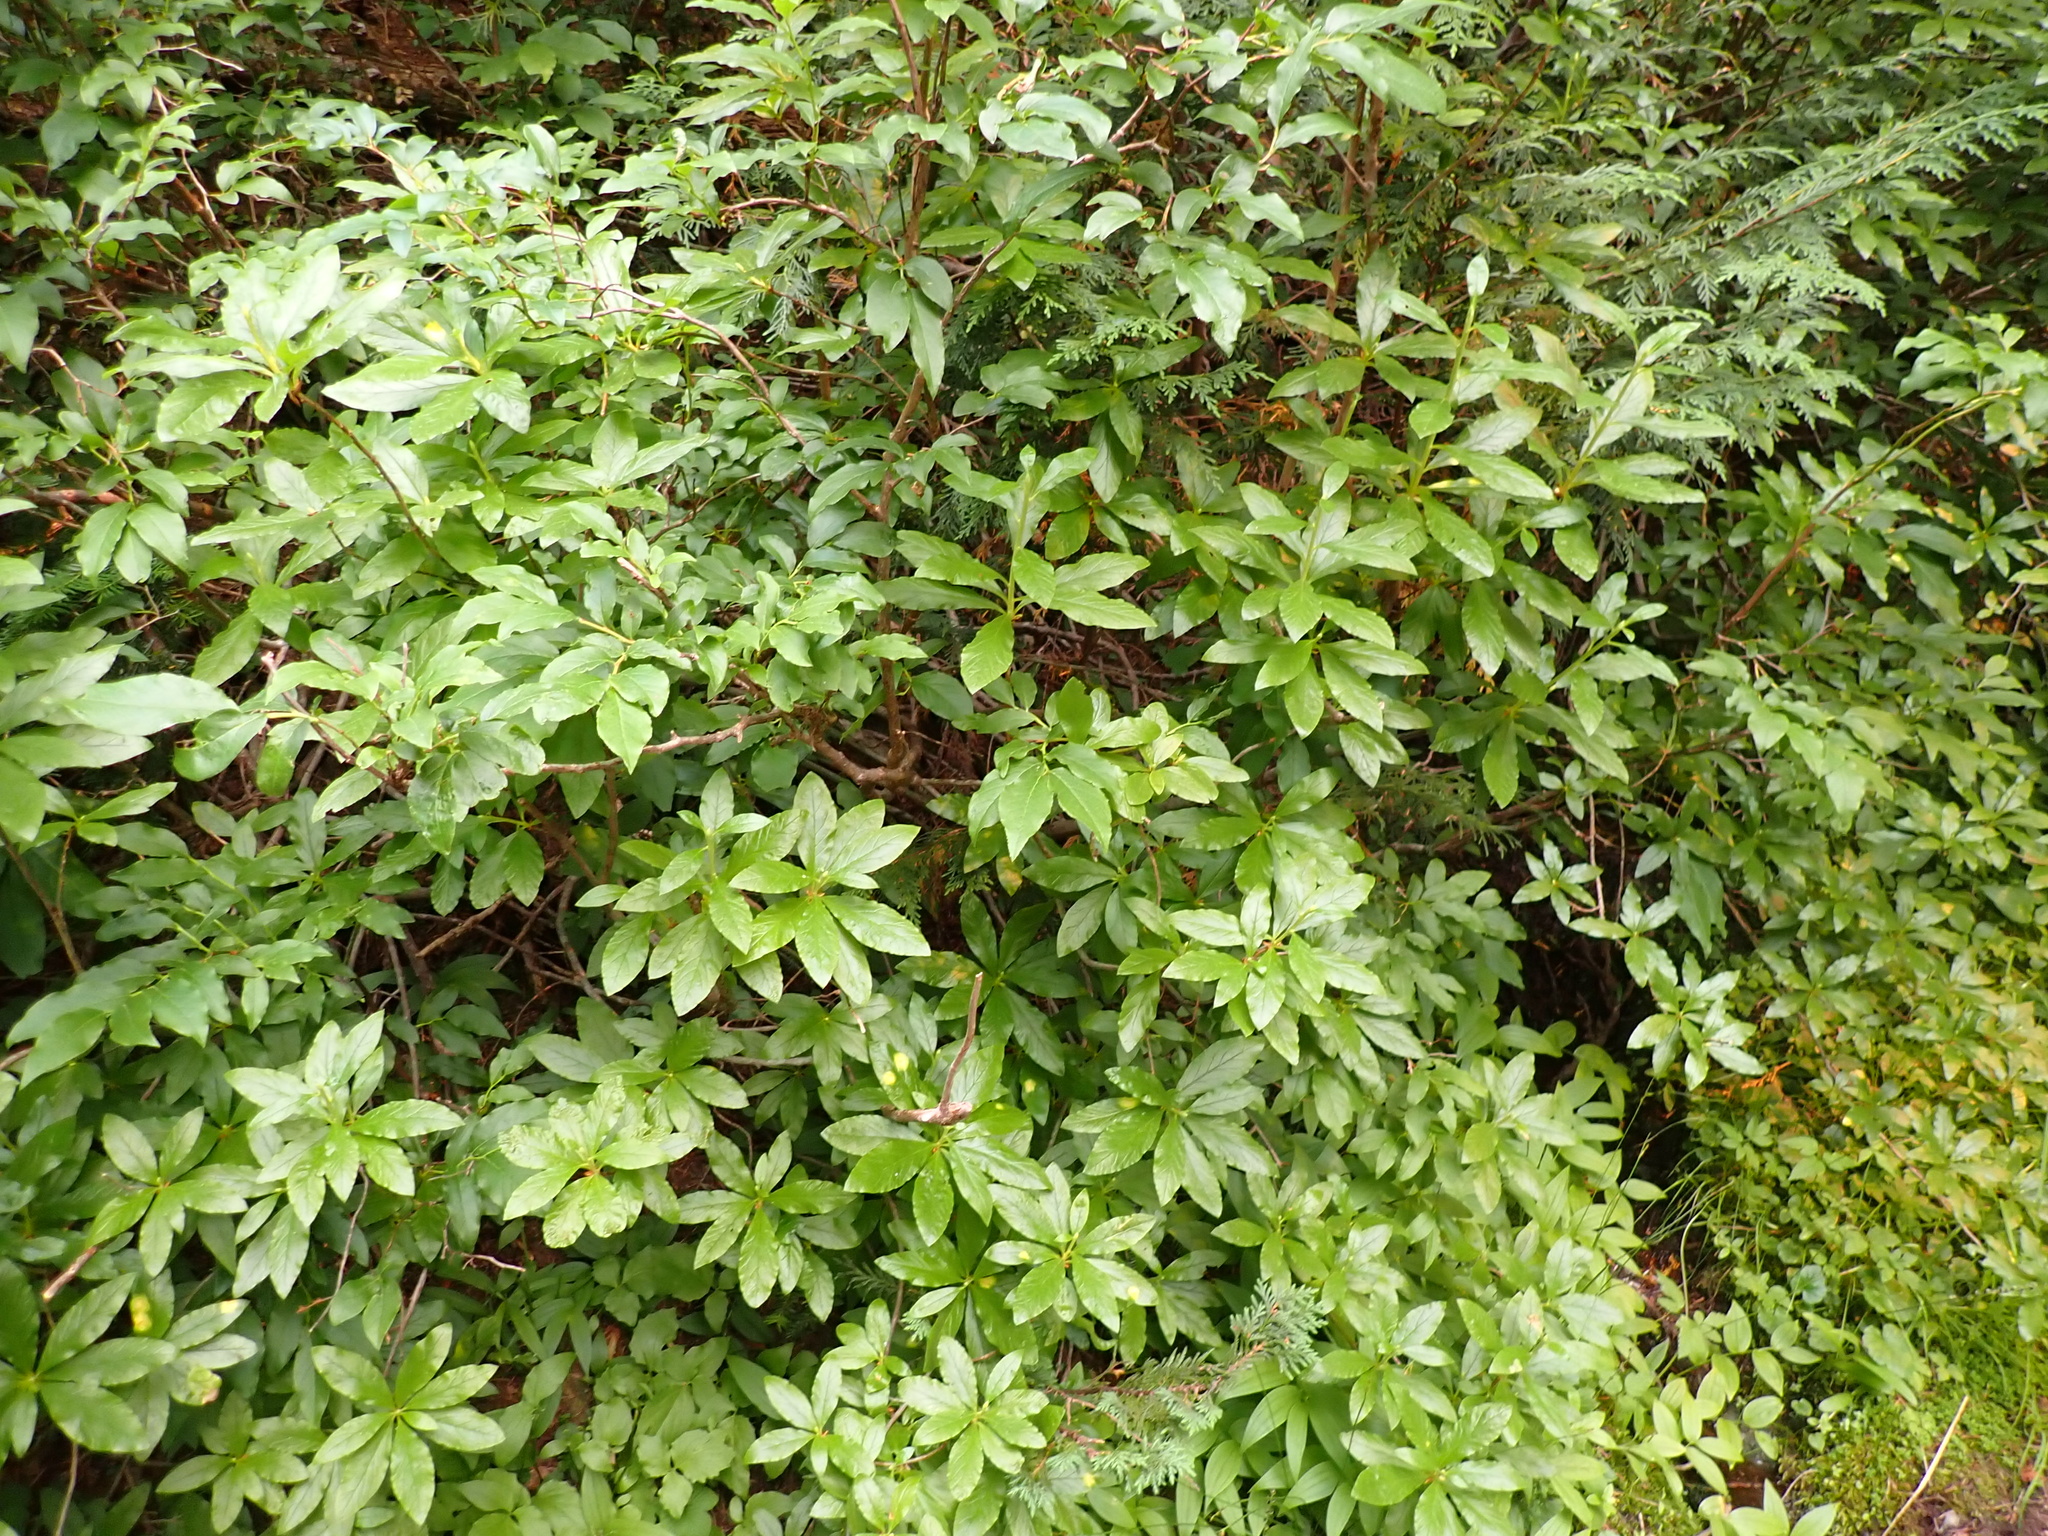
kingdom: Plantae
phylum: Tracheophyta
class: Magnoliopsida
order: Ericales
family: Ericaceae
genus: Rhododendron
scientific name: Rhododendron albiflorum
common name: White rhododendron
